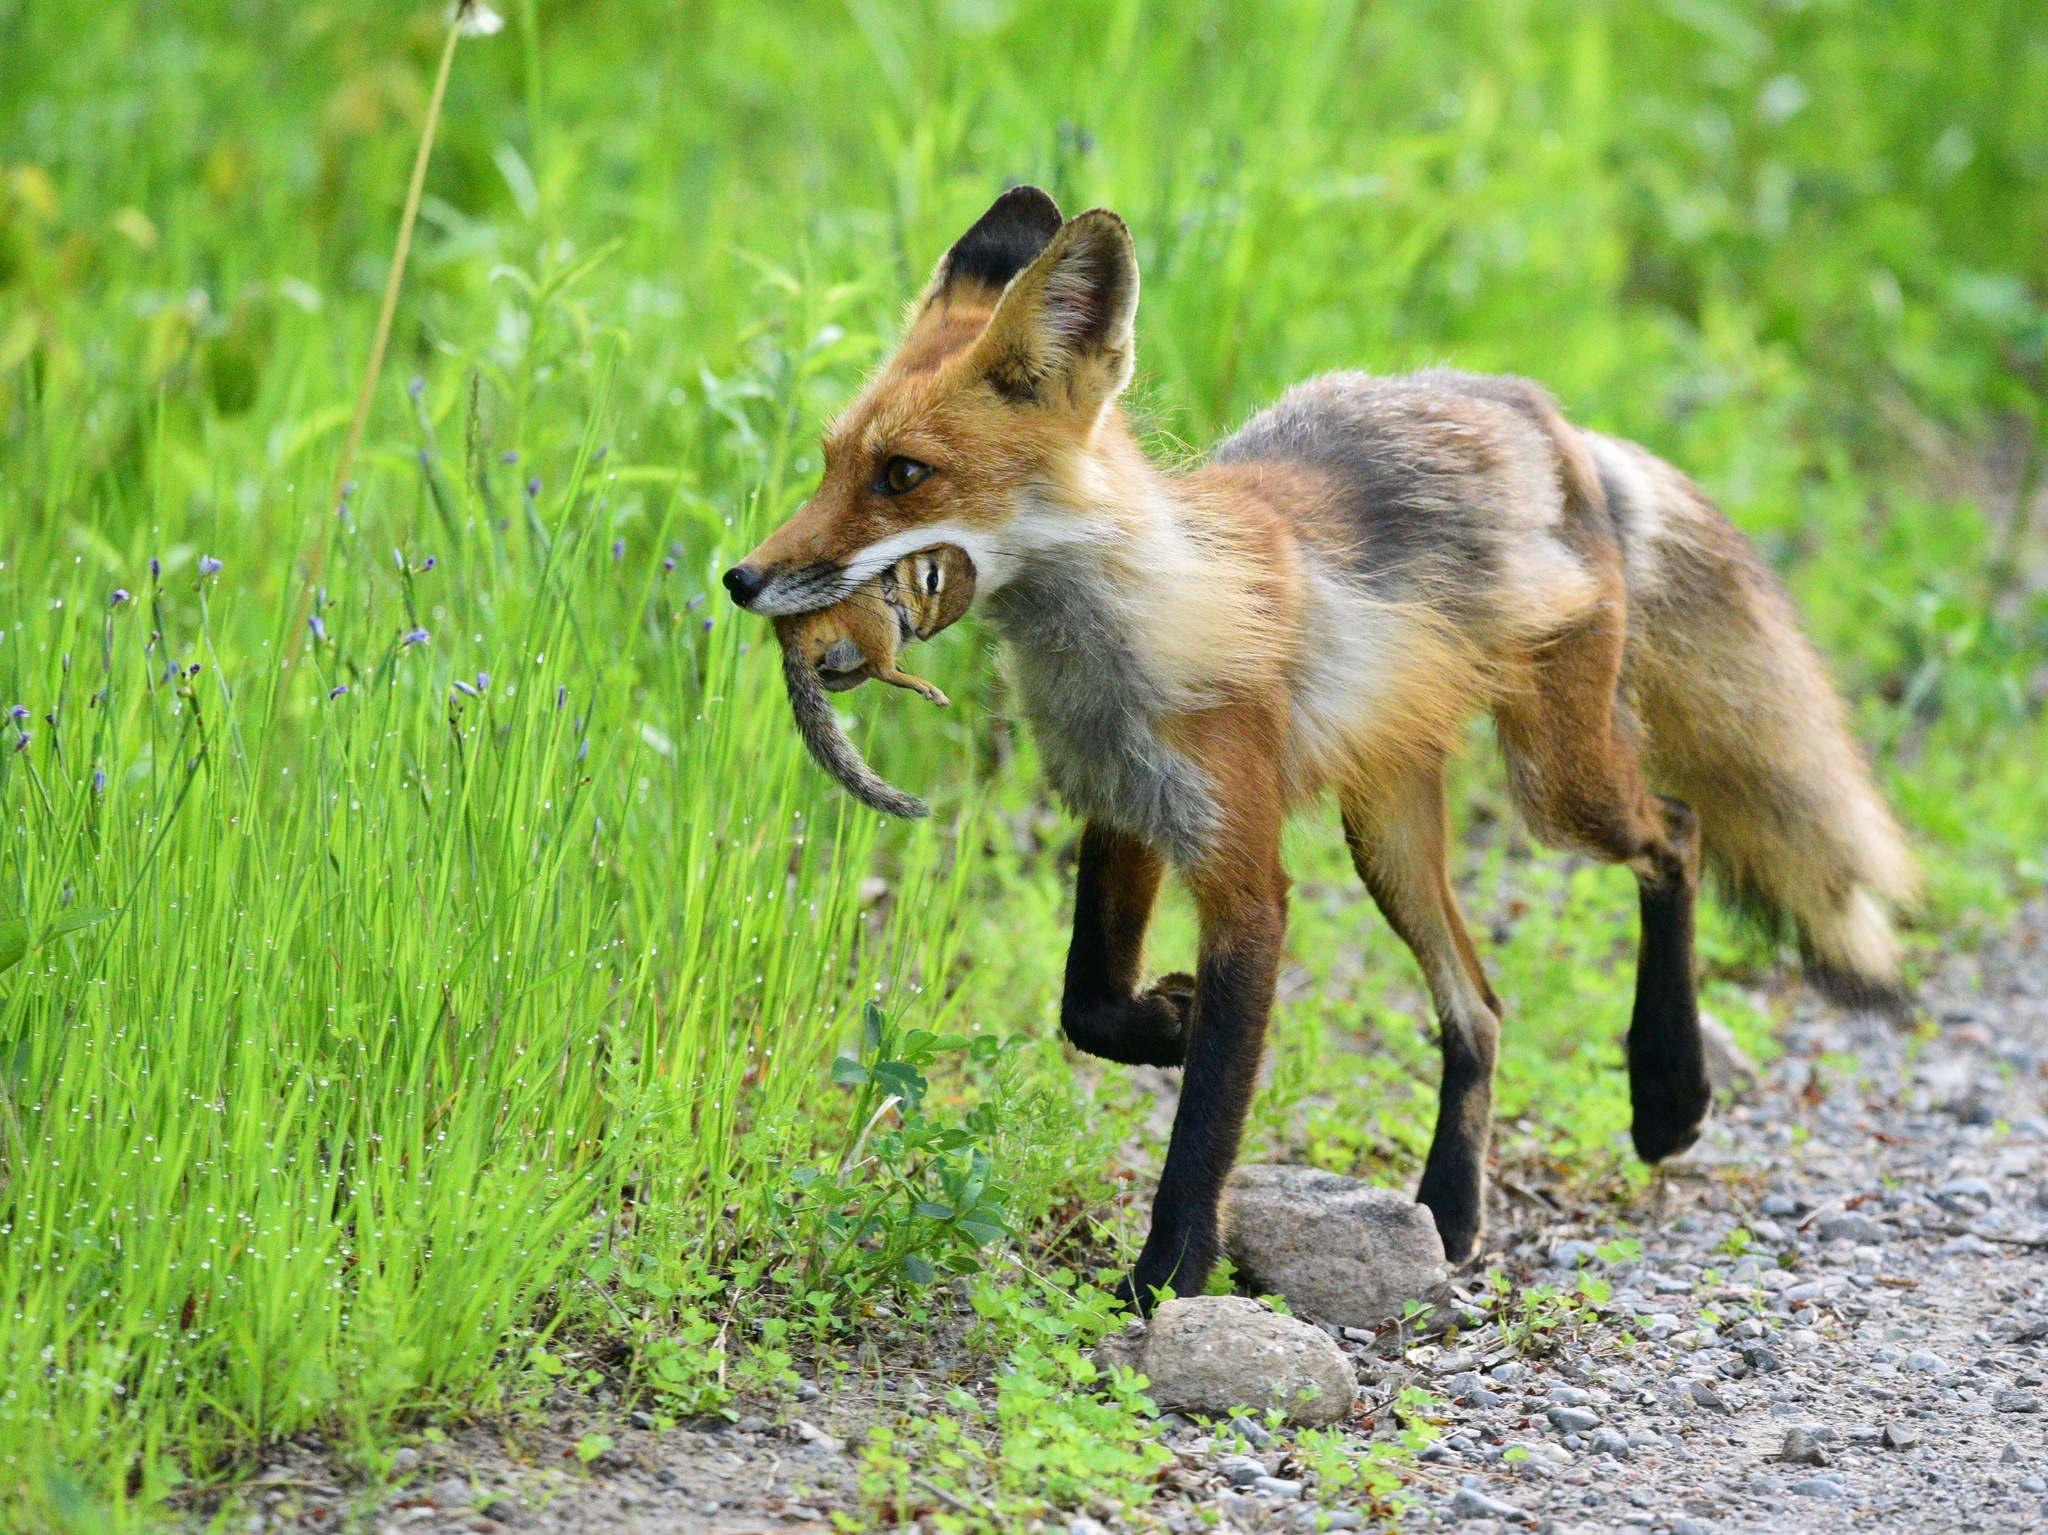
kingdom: Animalia
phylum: Chordata
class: Mammalia
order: Carnivora
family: Canidae
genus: Vulpes
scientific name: Vulpes vulpes
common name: Red fox
